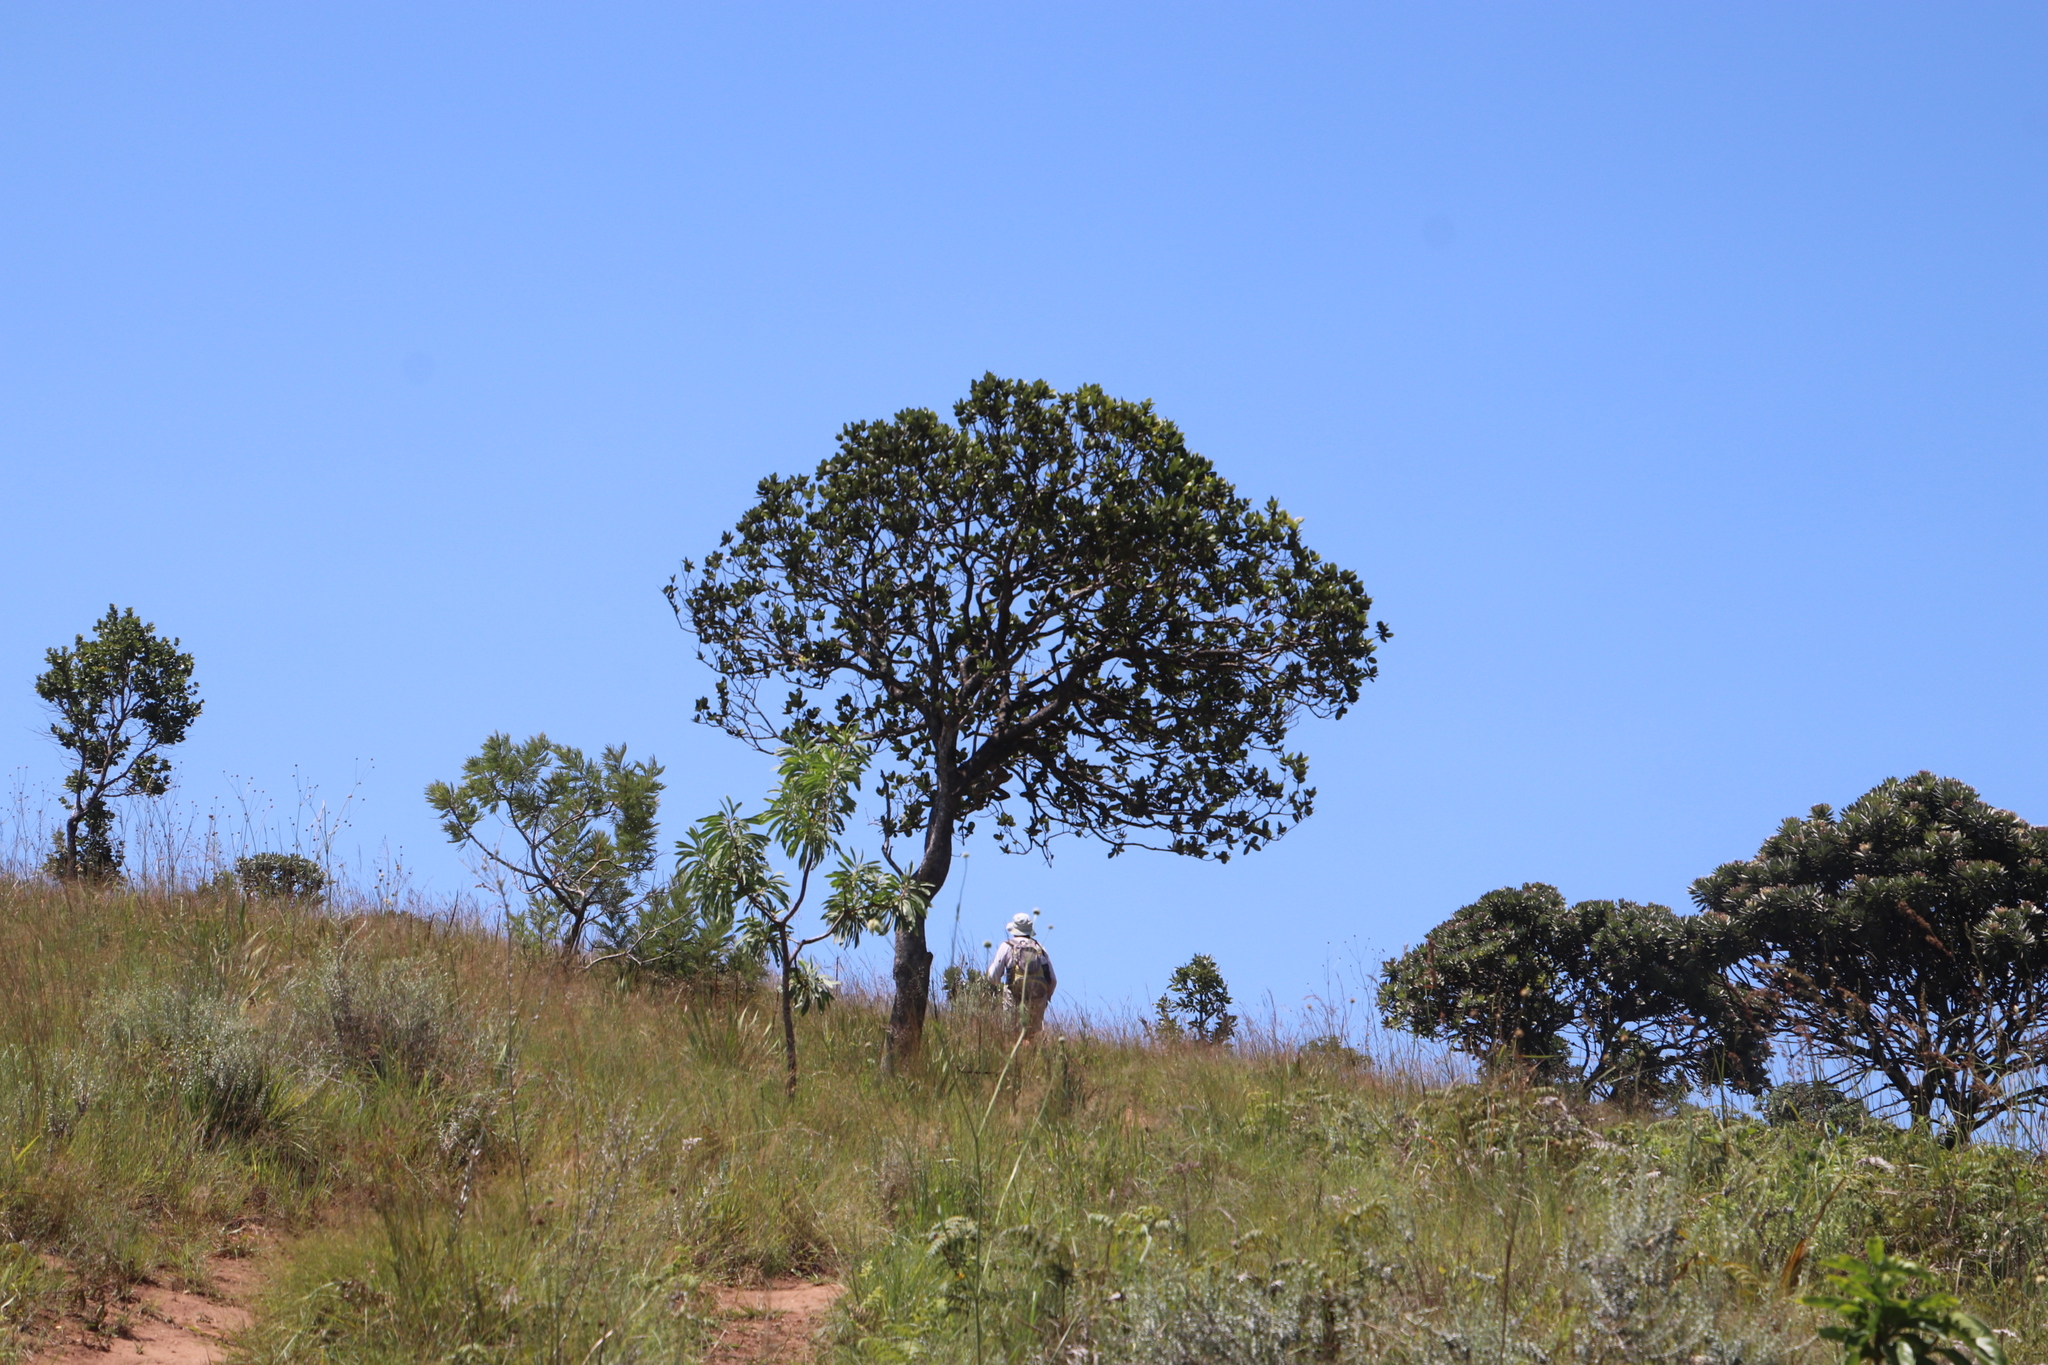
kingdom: Plantae
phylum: Tracheophyta
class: Magnoliopsida
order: Proteales
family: Proteaceae
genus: Protea
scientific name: Protea roupelliae
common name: Silver sugarbush
